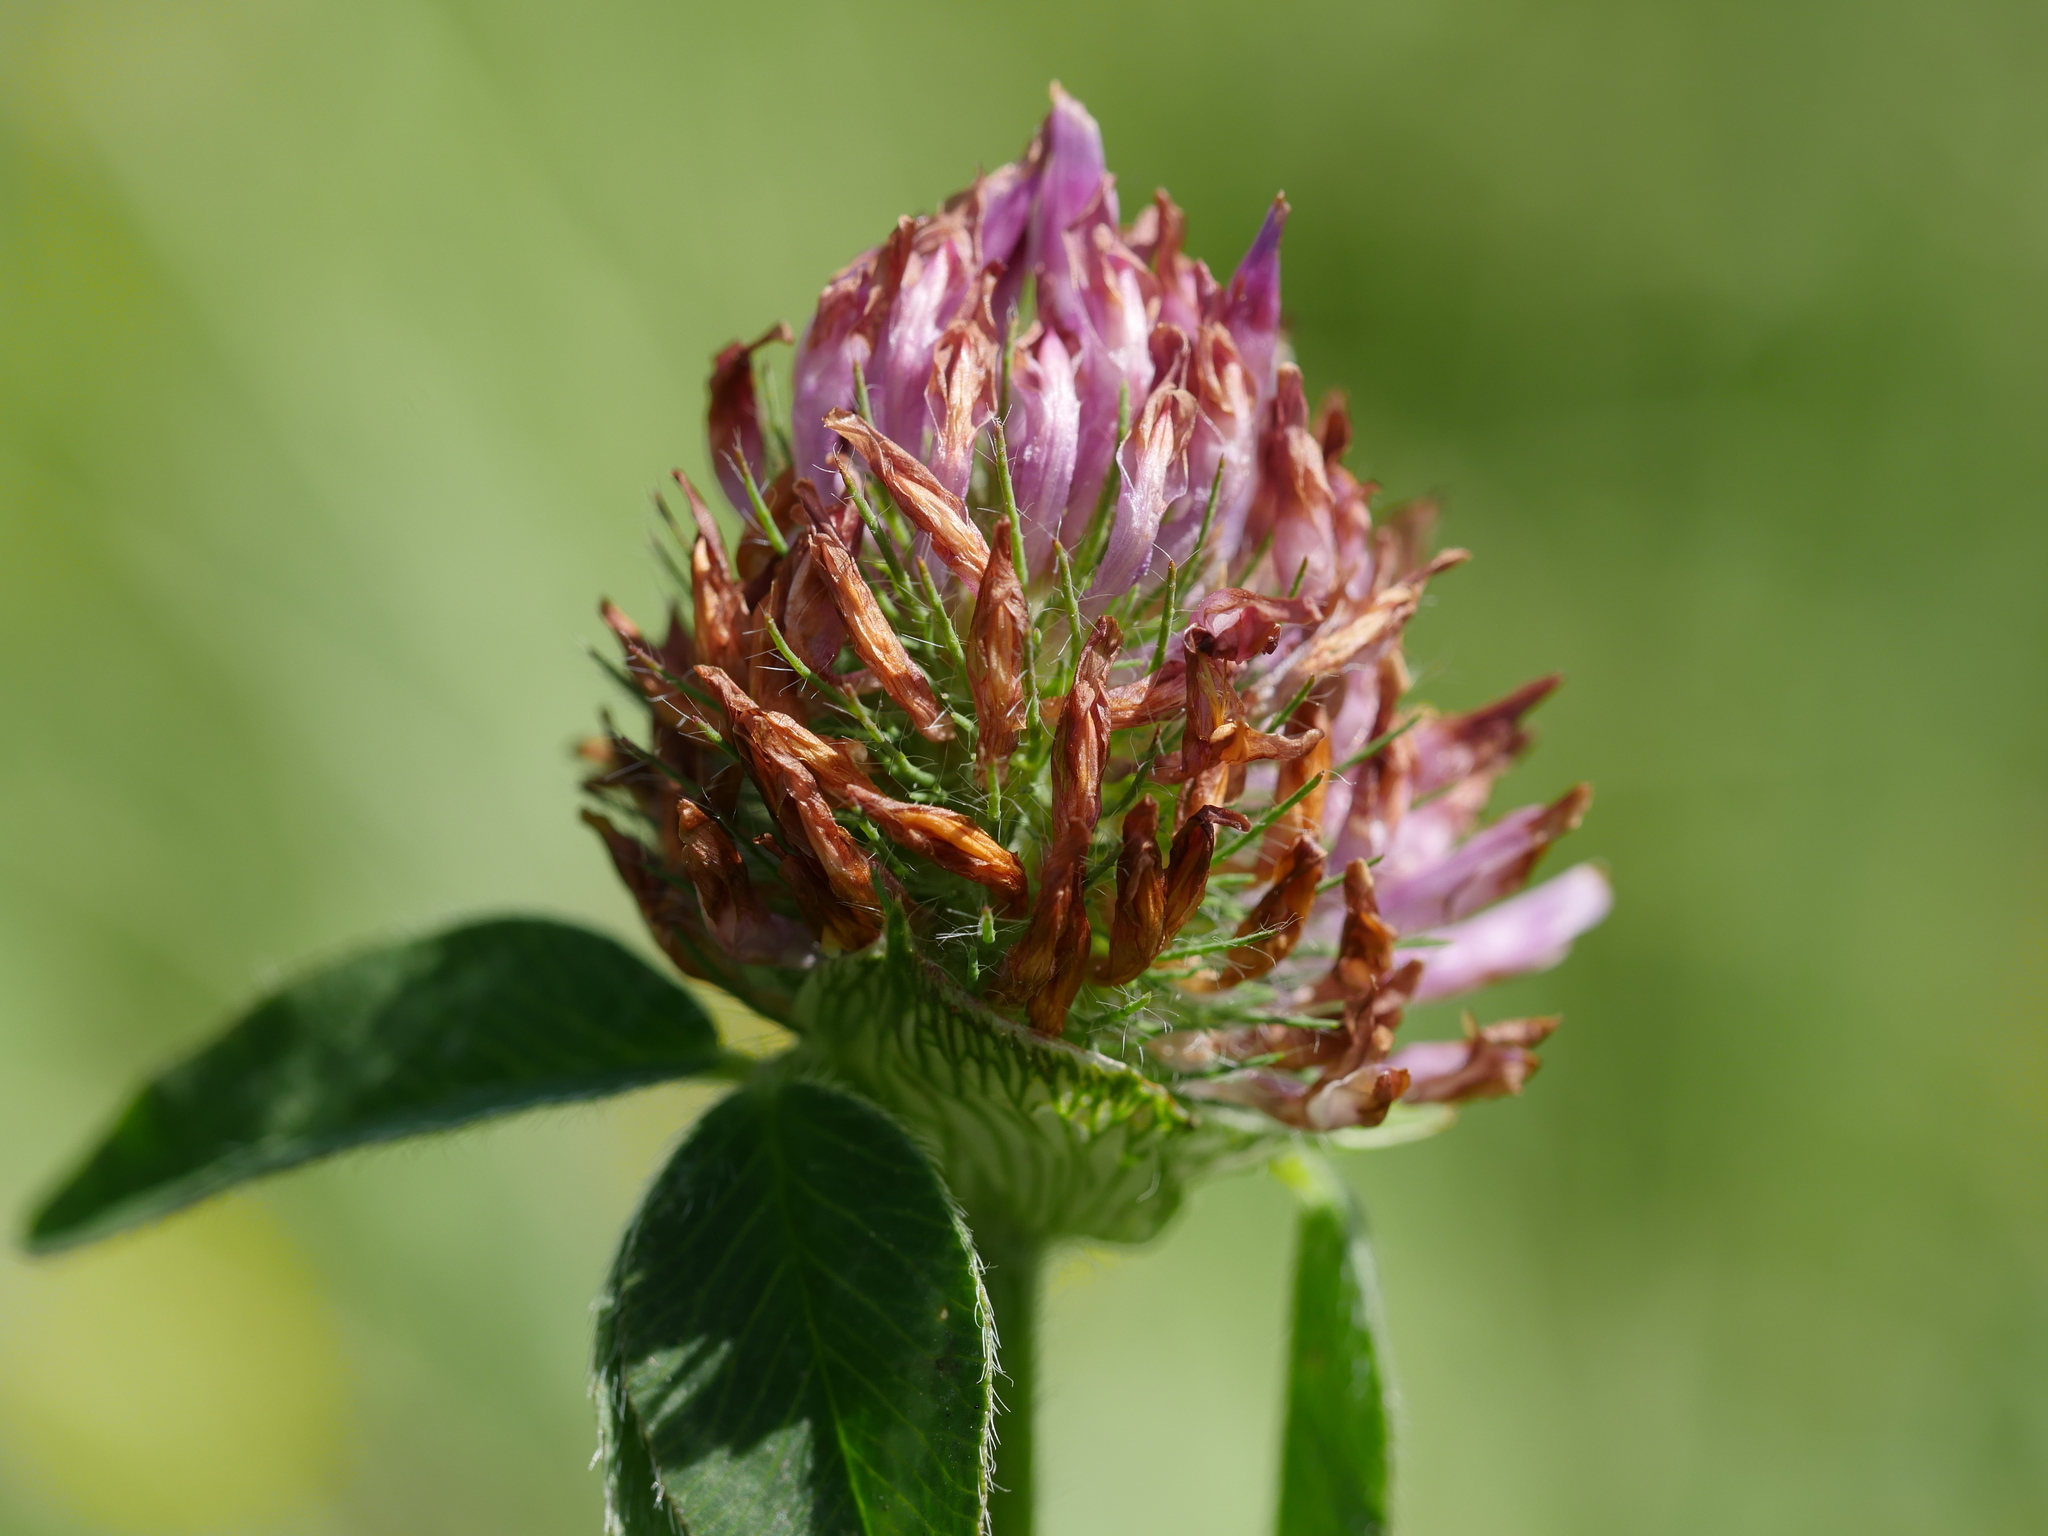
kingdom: Plantae
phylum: Tracheophyta
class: Magnoliopsida
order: Fabales
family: Fabaceae
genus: Trifolium
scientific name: Trifolium pratense
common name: Red clover
